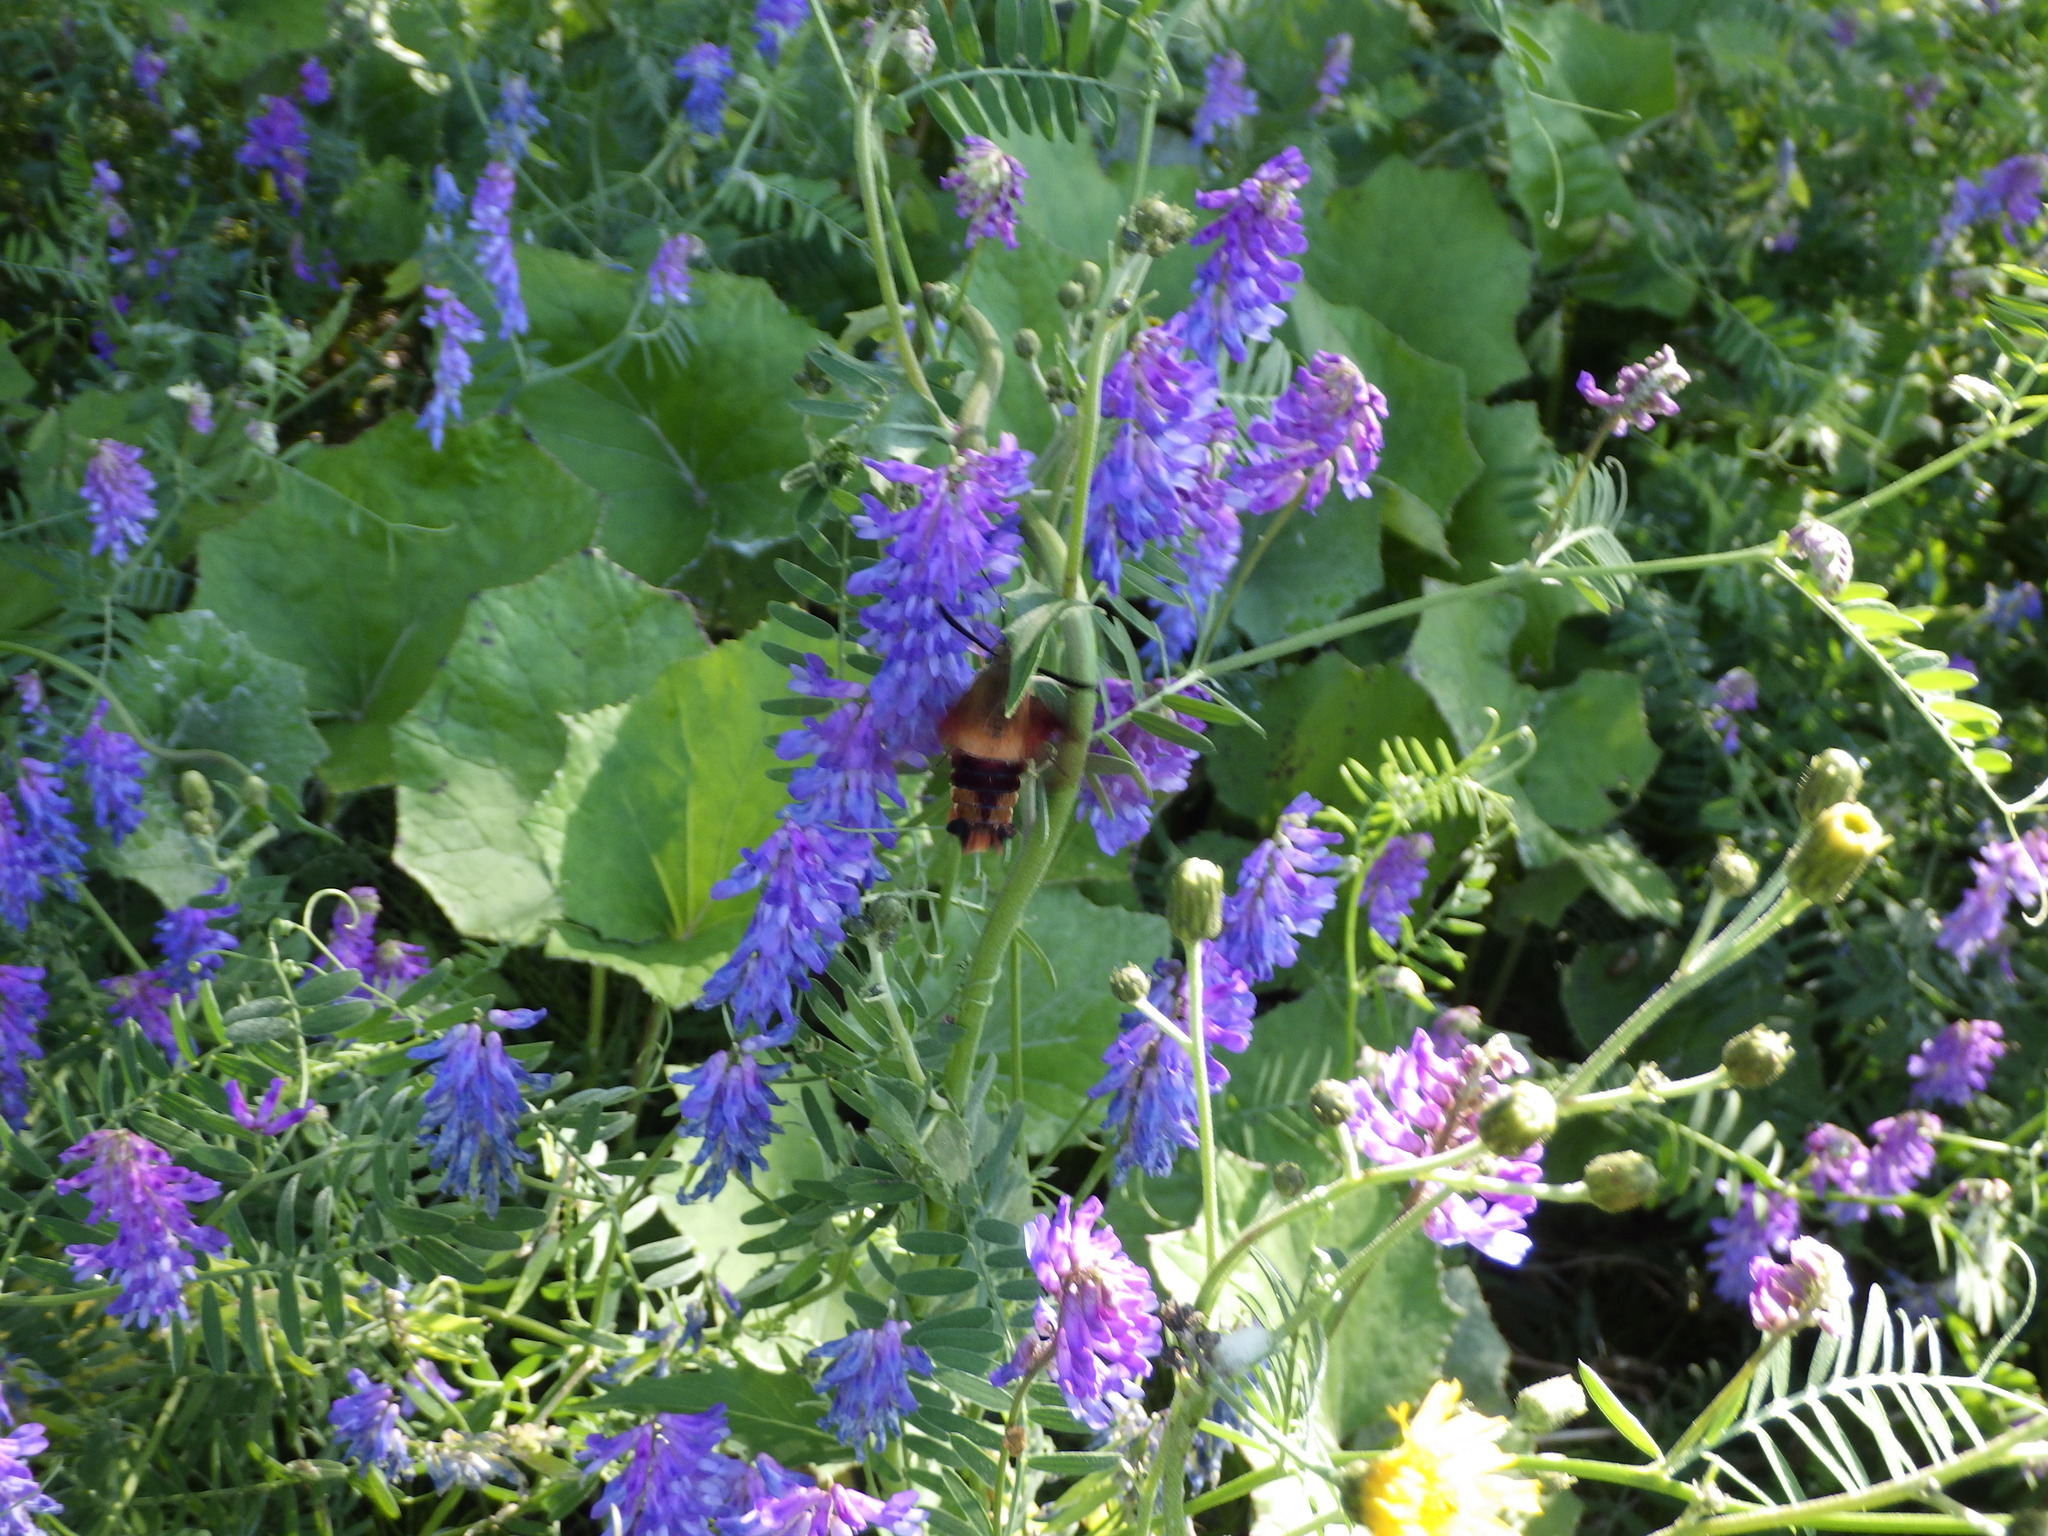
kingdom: Animalia
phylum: Arthropoda
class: Insecta
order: Lepidoptera
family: Sphingidae
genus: Hemaris
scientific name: Hemaris thysbe
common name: Common clear-wing
